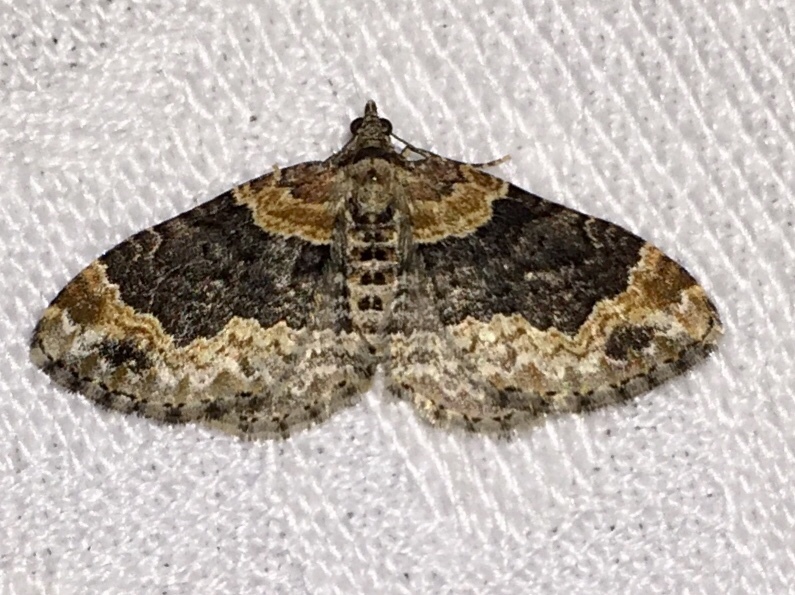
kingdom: Animalia
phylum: Arthropoda
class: Insecta
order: Lepidoptera
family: Geometridae
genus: Xanthorhoe
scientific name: Xanthorhoe ferrugata
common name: Dark-barred twin-spot carpet
